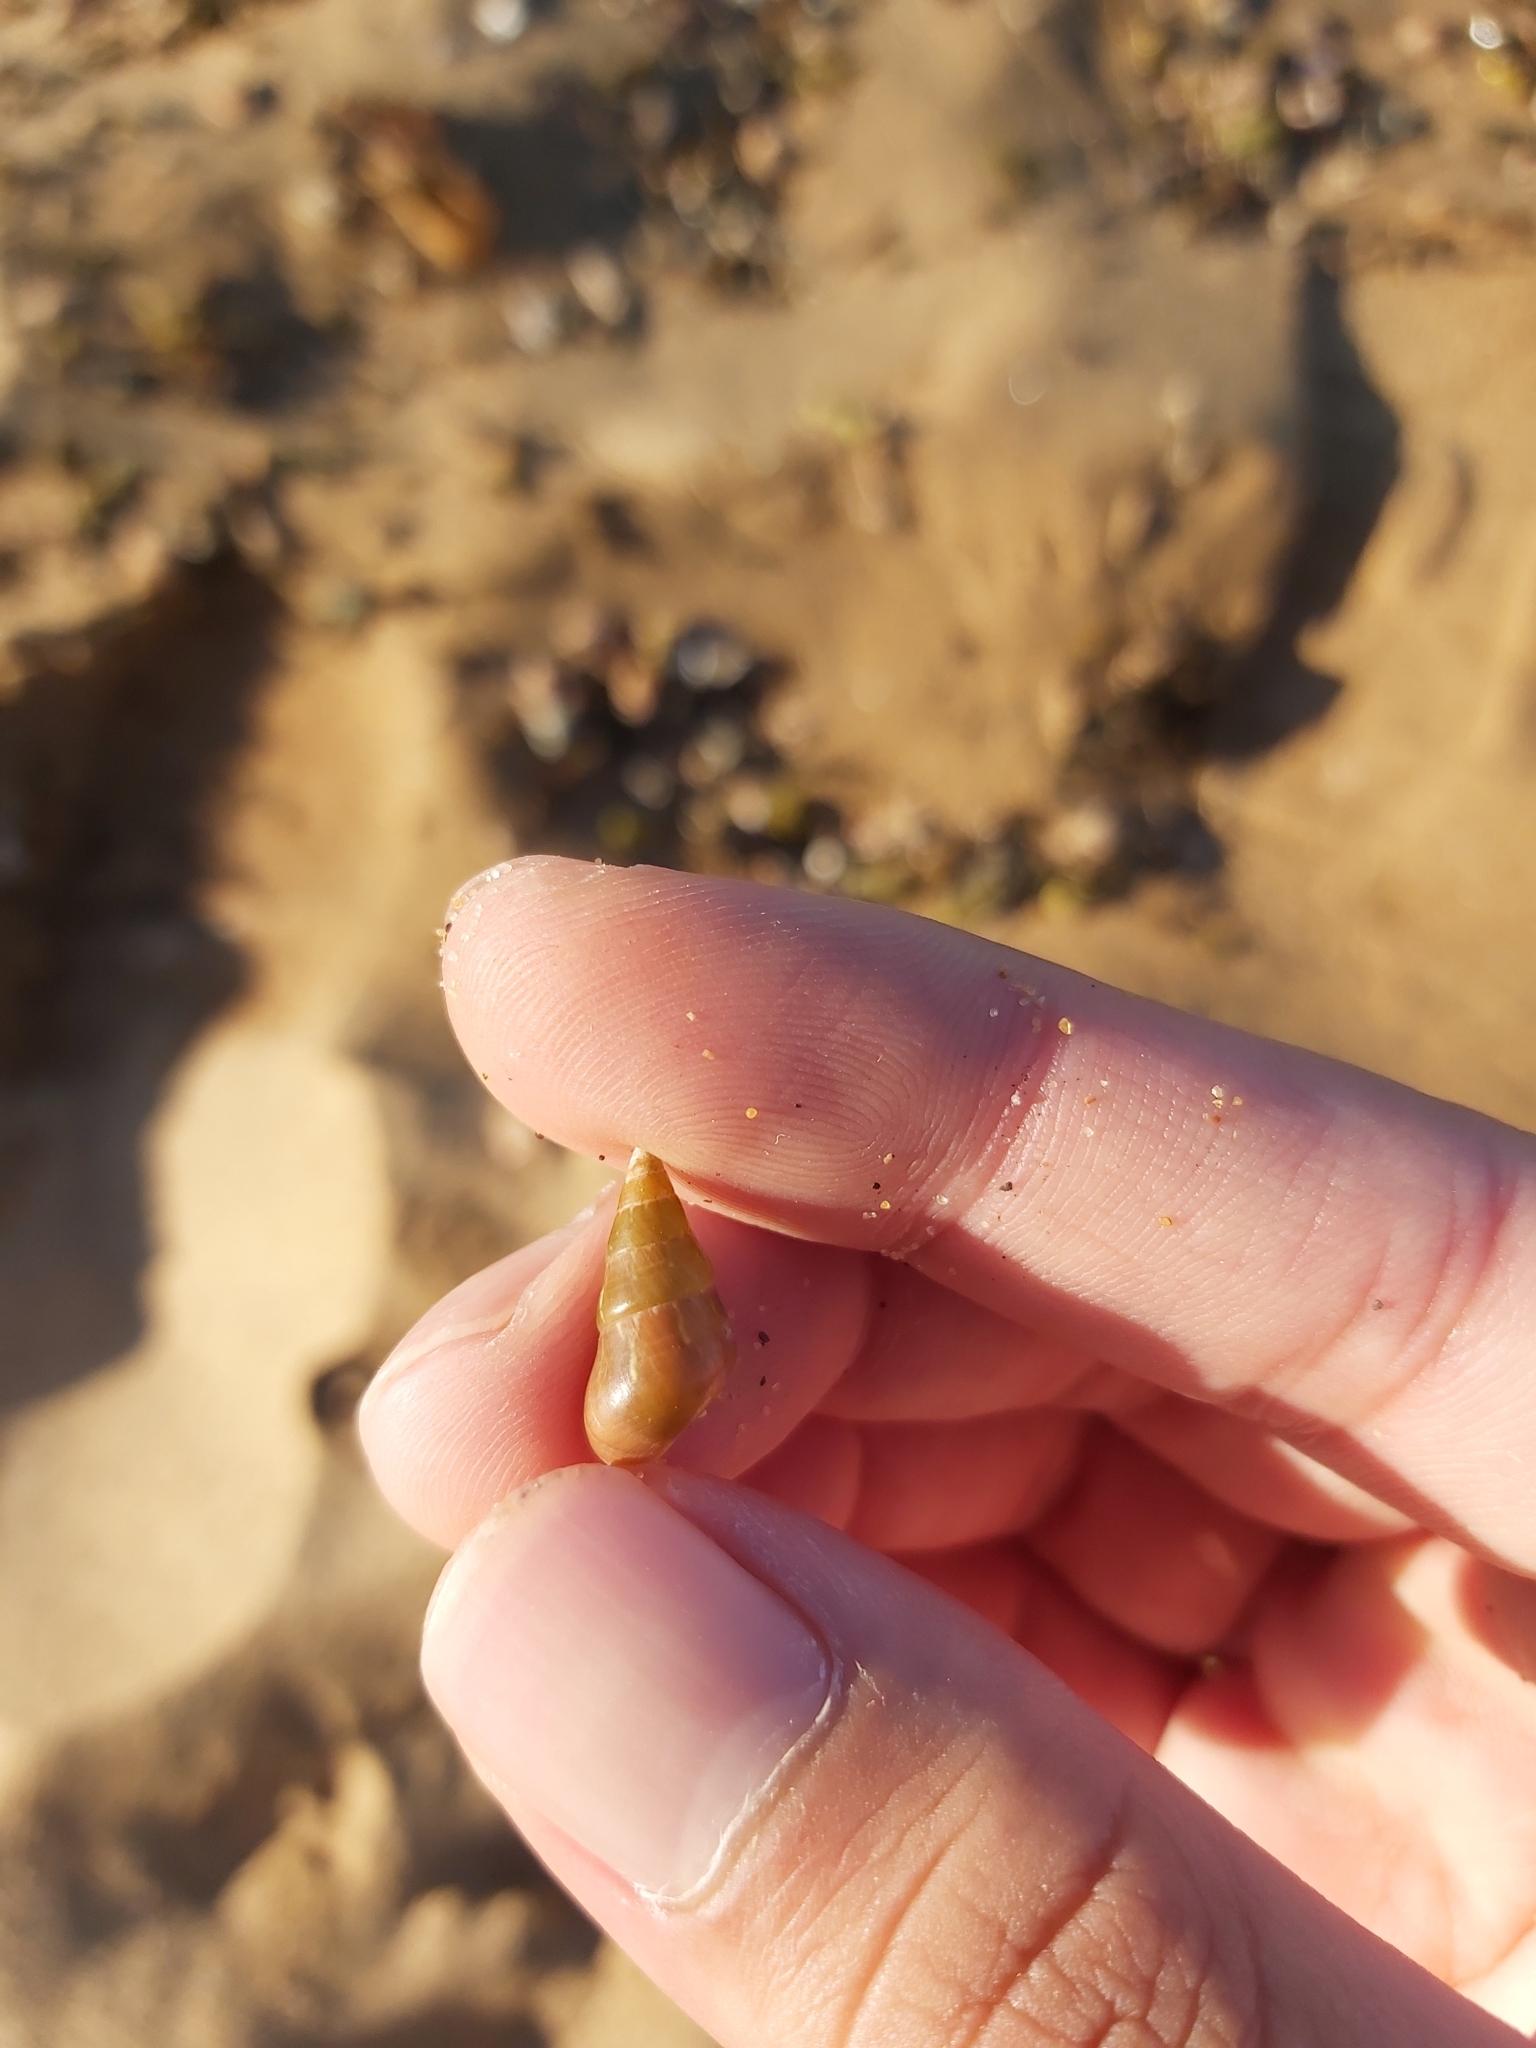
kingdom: Animalia
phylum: Mollusca
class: Gastropoda
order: Trochida
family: Trochidae
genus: Phasianotrochus
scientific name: Phasianotrochus eximius
